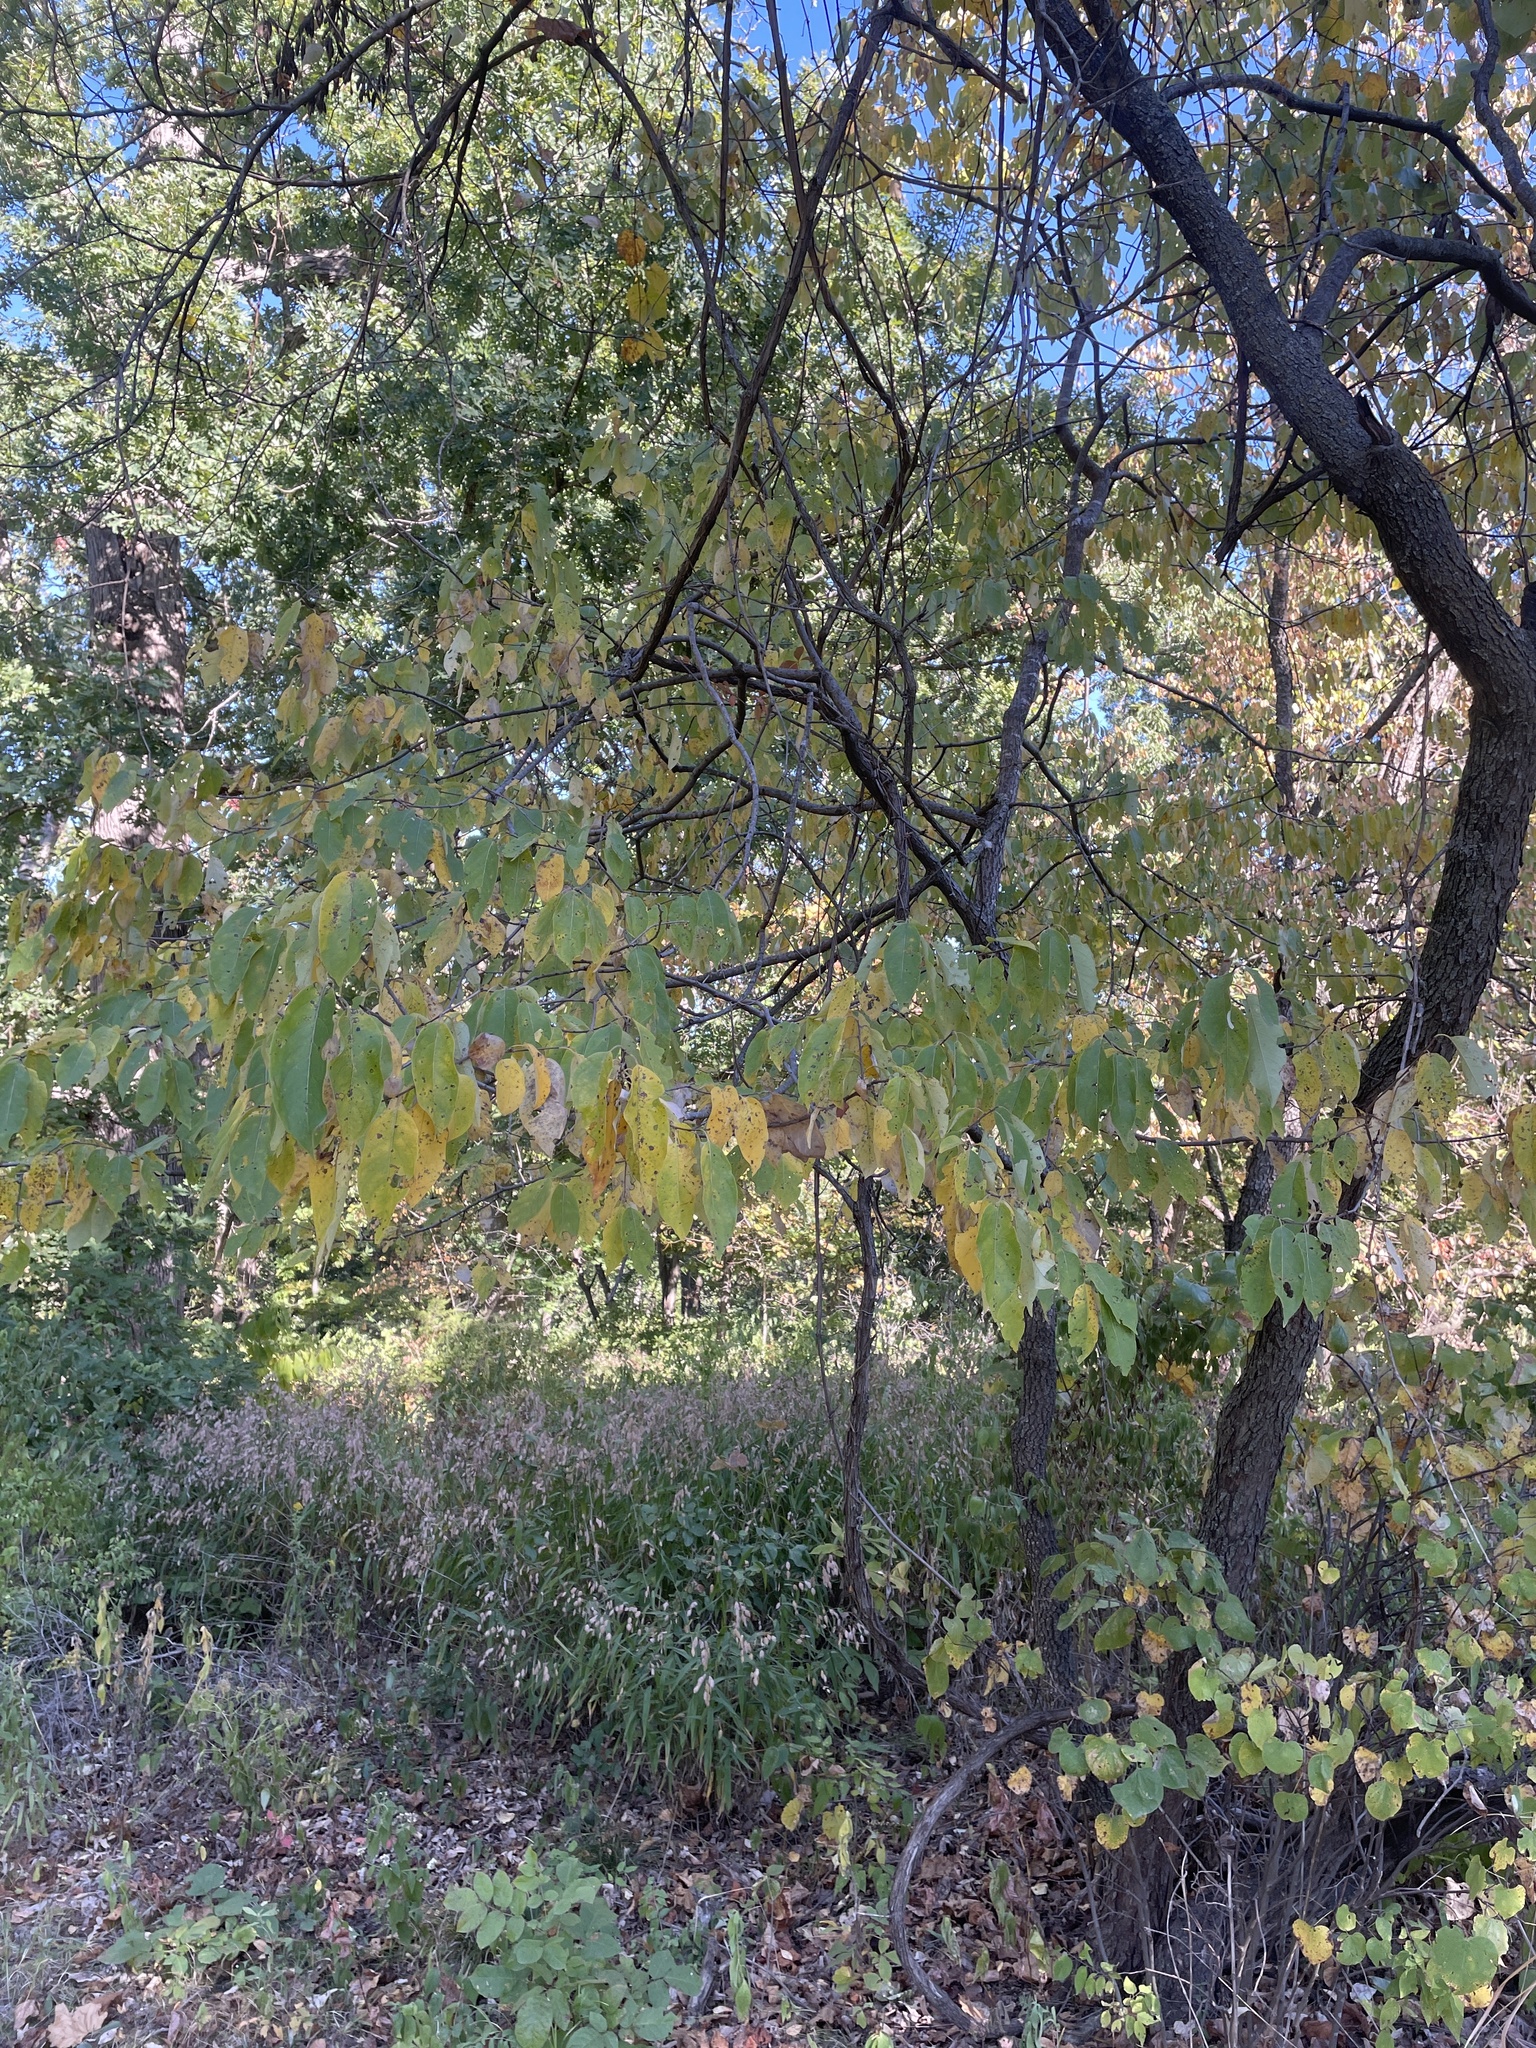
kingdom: Plantae
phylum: Tracheophyta
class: Magnoliopsida
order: Ericales
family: Ebenaceae
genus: Diospyros
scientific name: Diospyros virginiana
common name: Persimmon
